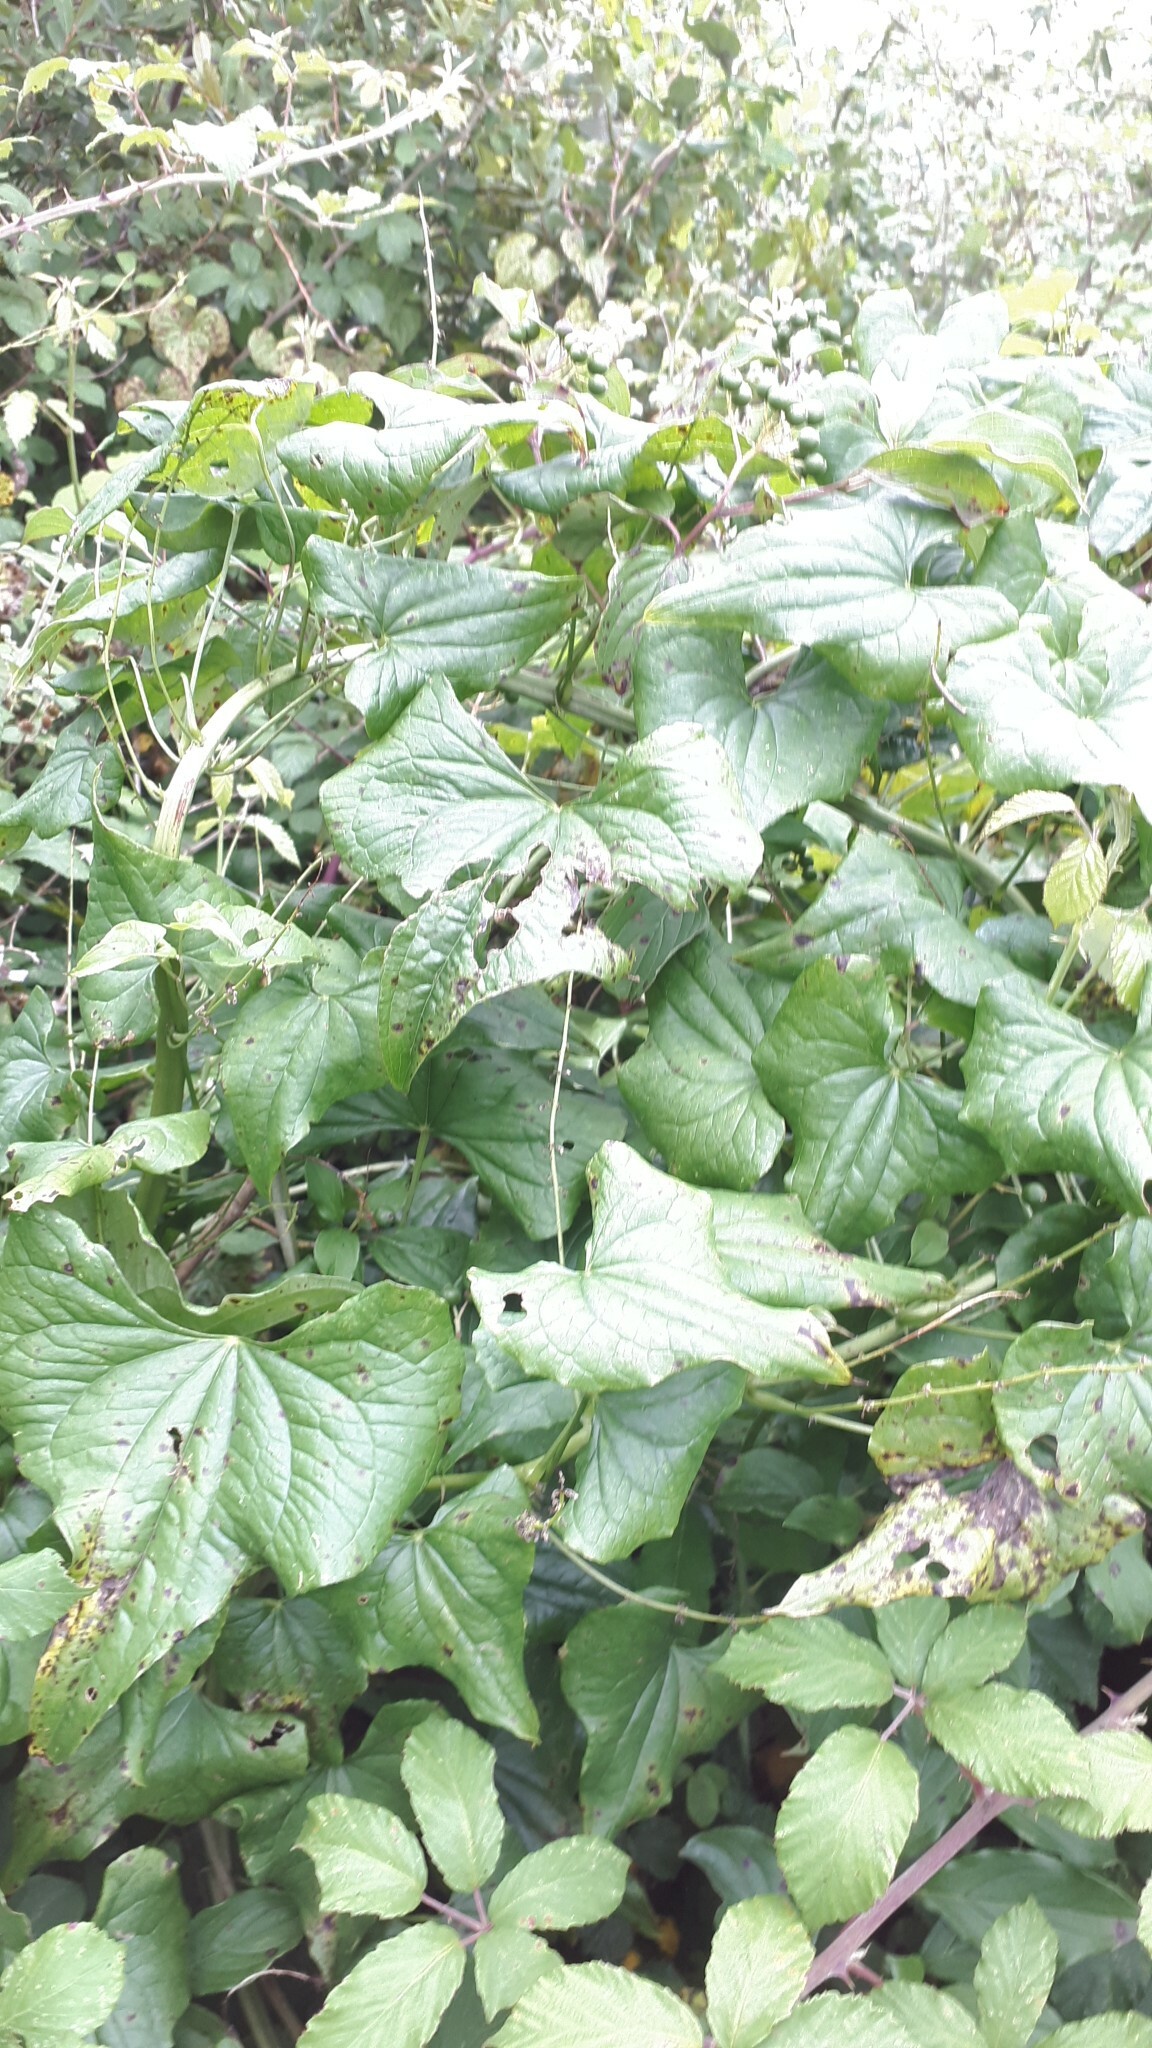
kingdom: Plantae
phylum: Tracheophyta
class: Liliopsida
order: Dioscoreales
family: Dioscoreaceae
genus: Dioscorea
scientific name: Dioscorea communis
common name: Black-bindweed
